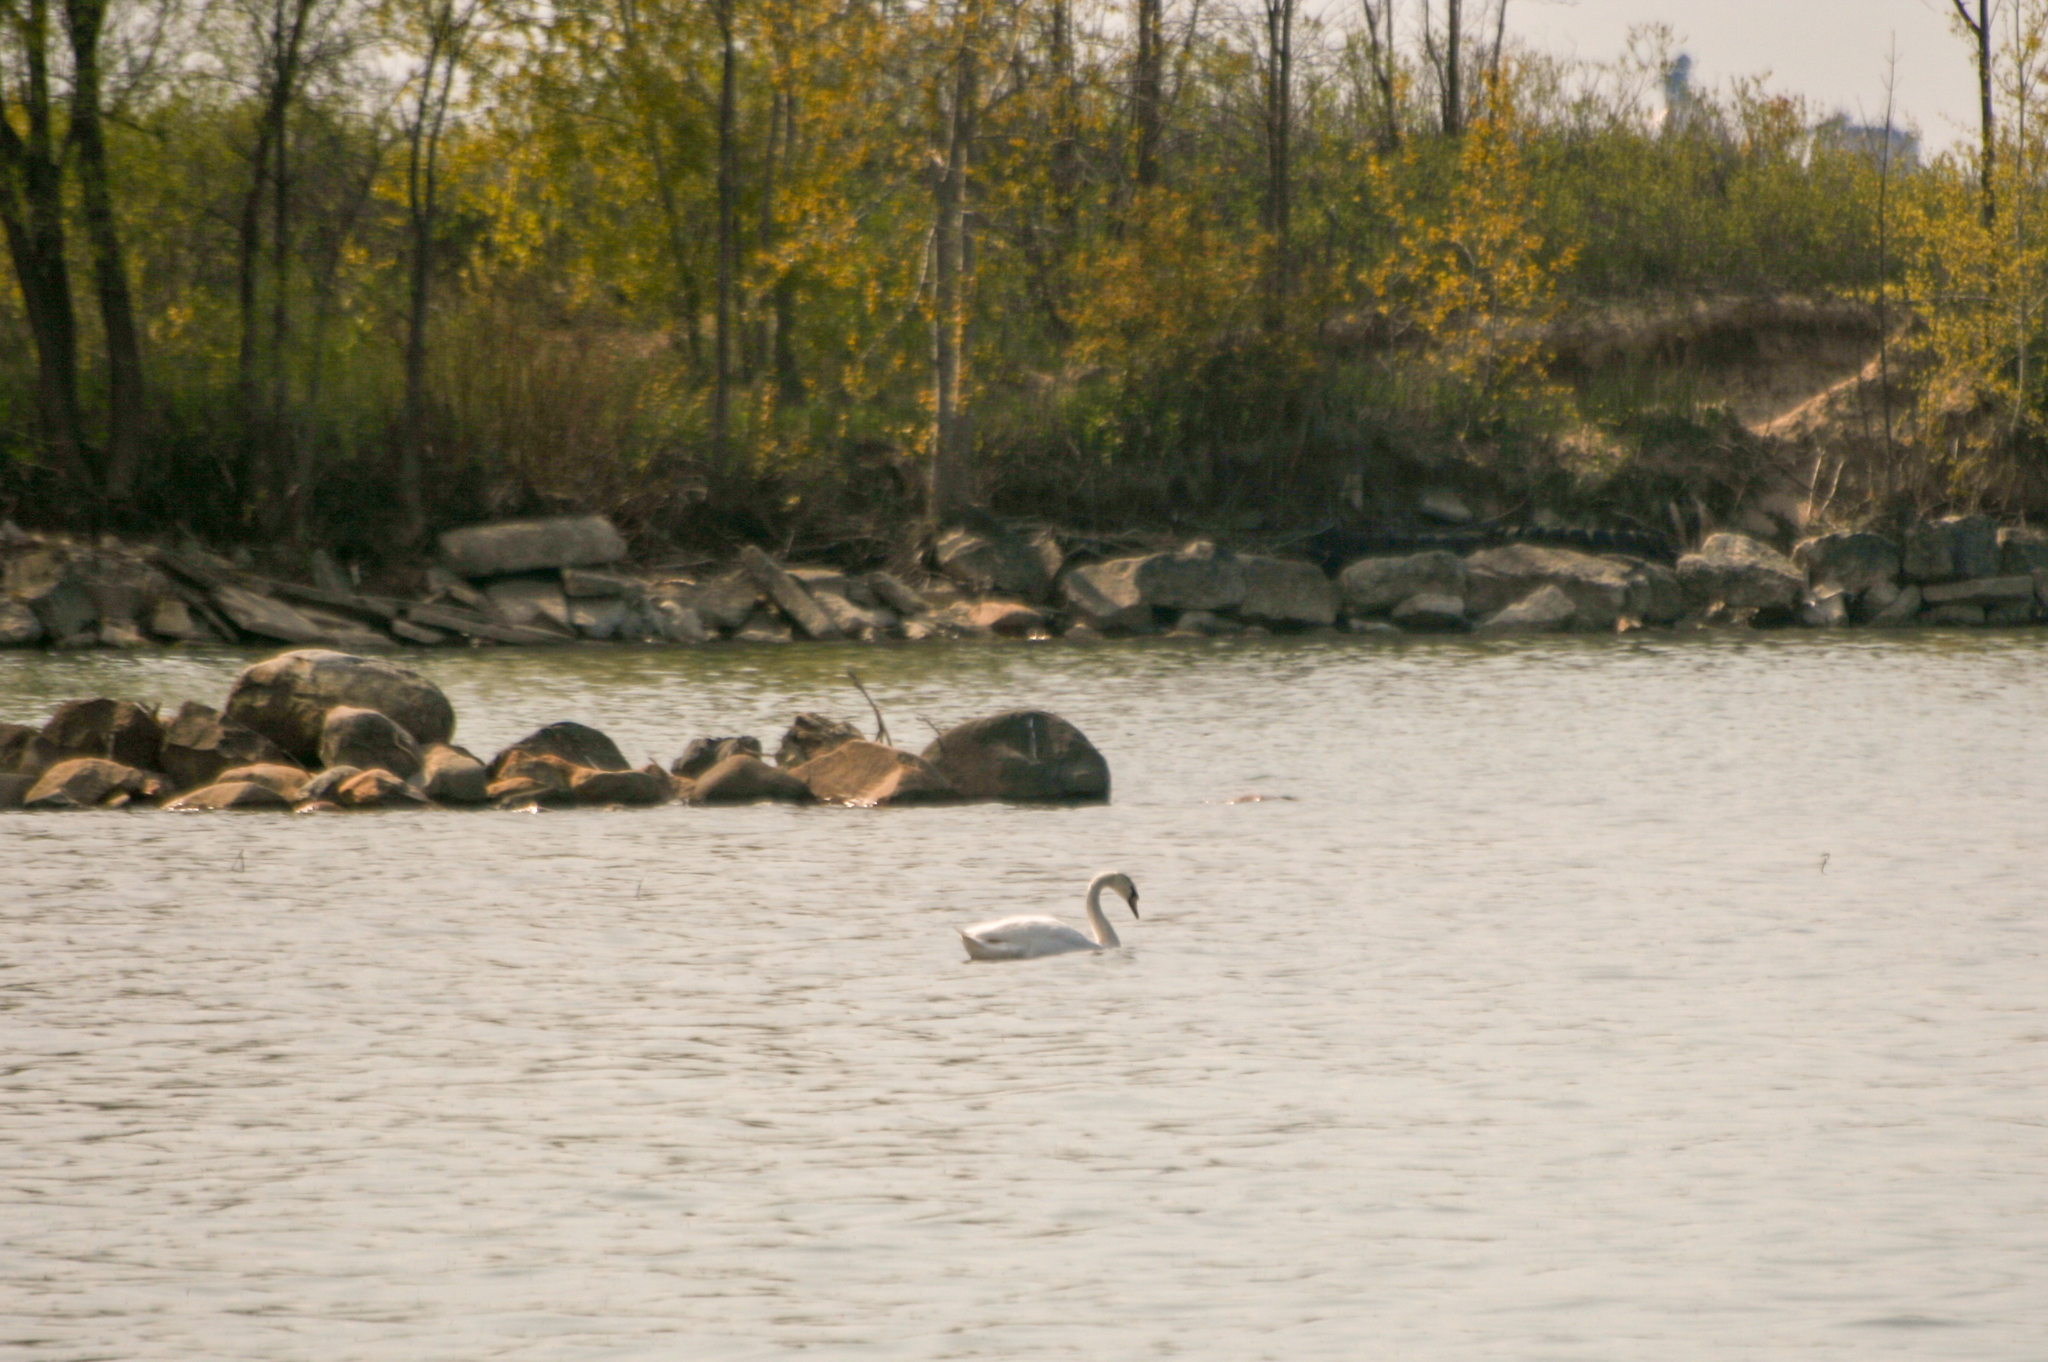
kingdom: Animalia
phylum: Chordata
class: Aves
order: Anseriformes
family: Anatidae
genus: Cygnus
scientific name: Cygnus olor
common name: Mute swan
